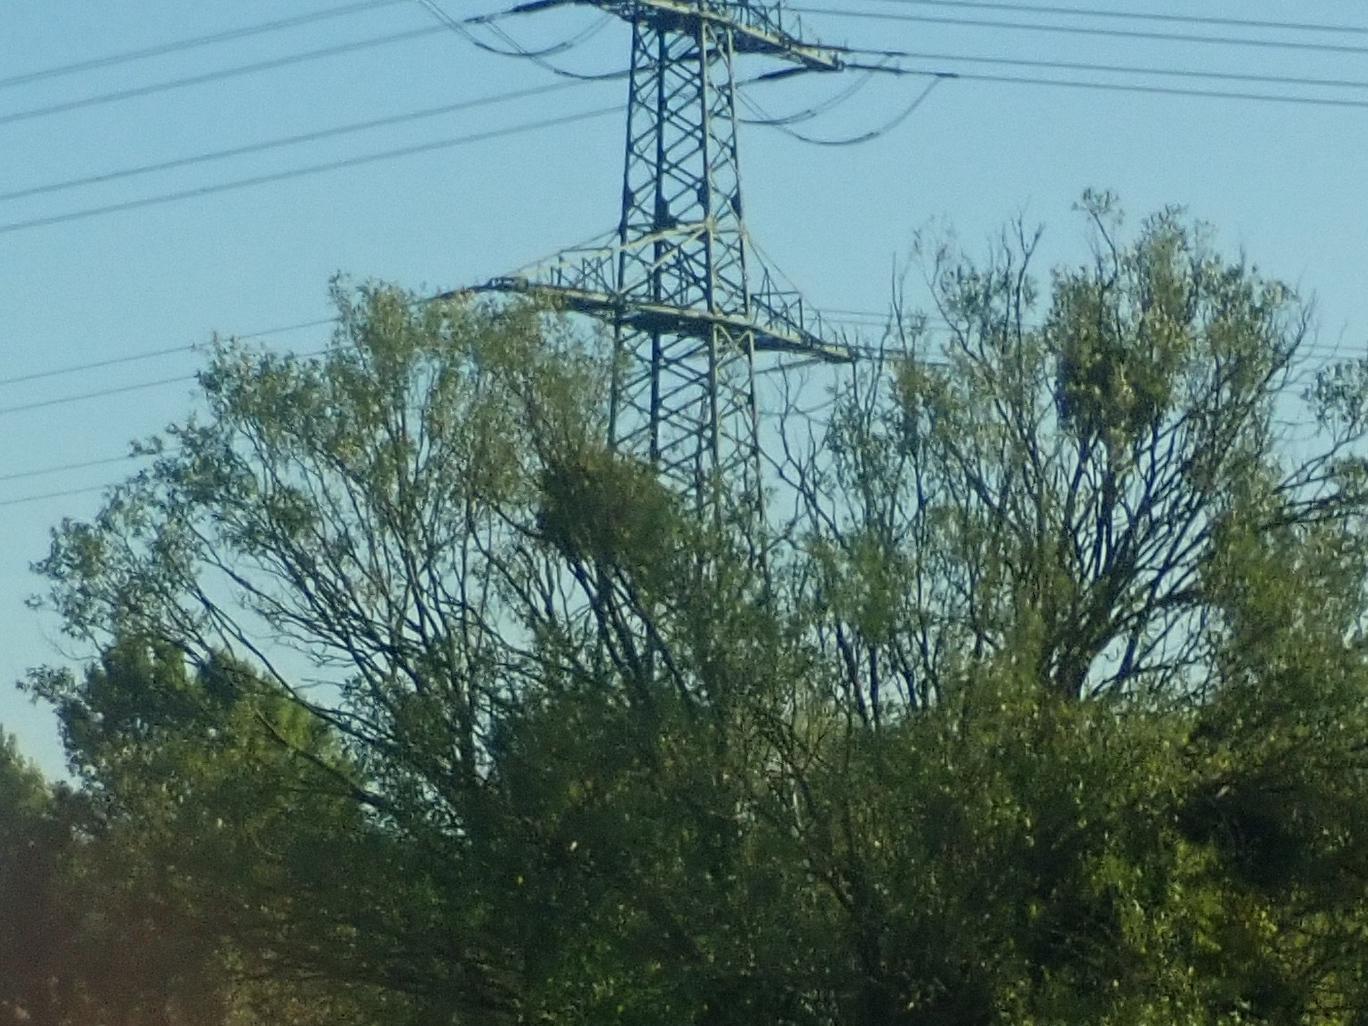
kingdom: Plantae
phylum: Tracheophyta
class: Magnoliopsida
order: Santalales
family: Viscaceae
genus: Viscum
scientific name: Viscum album
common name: Mistletoe
